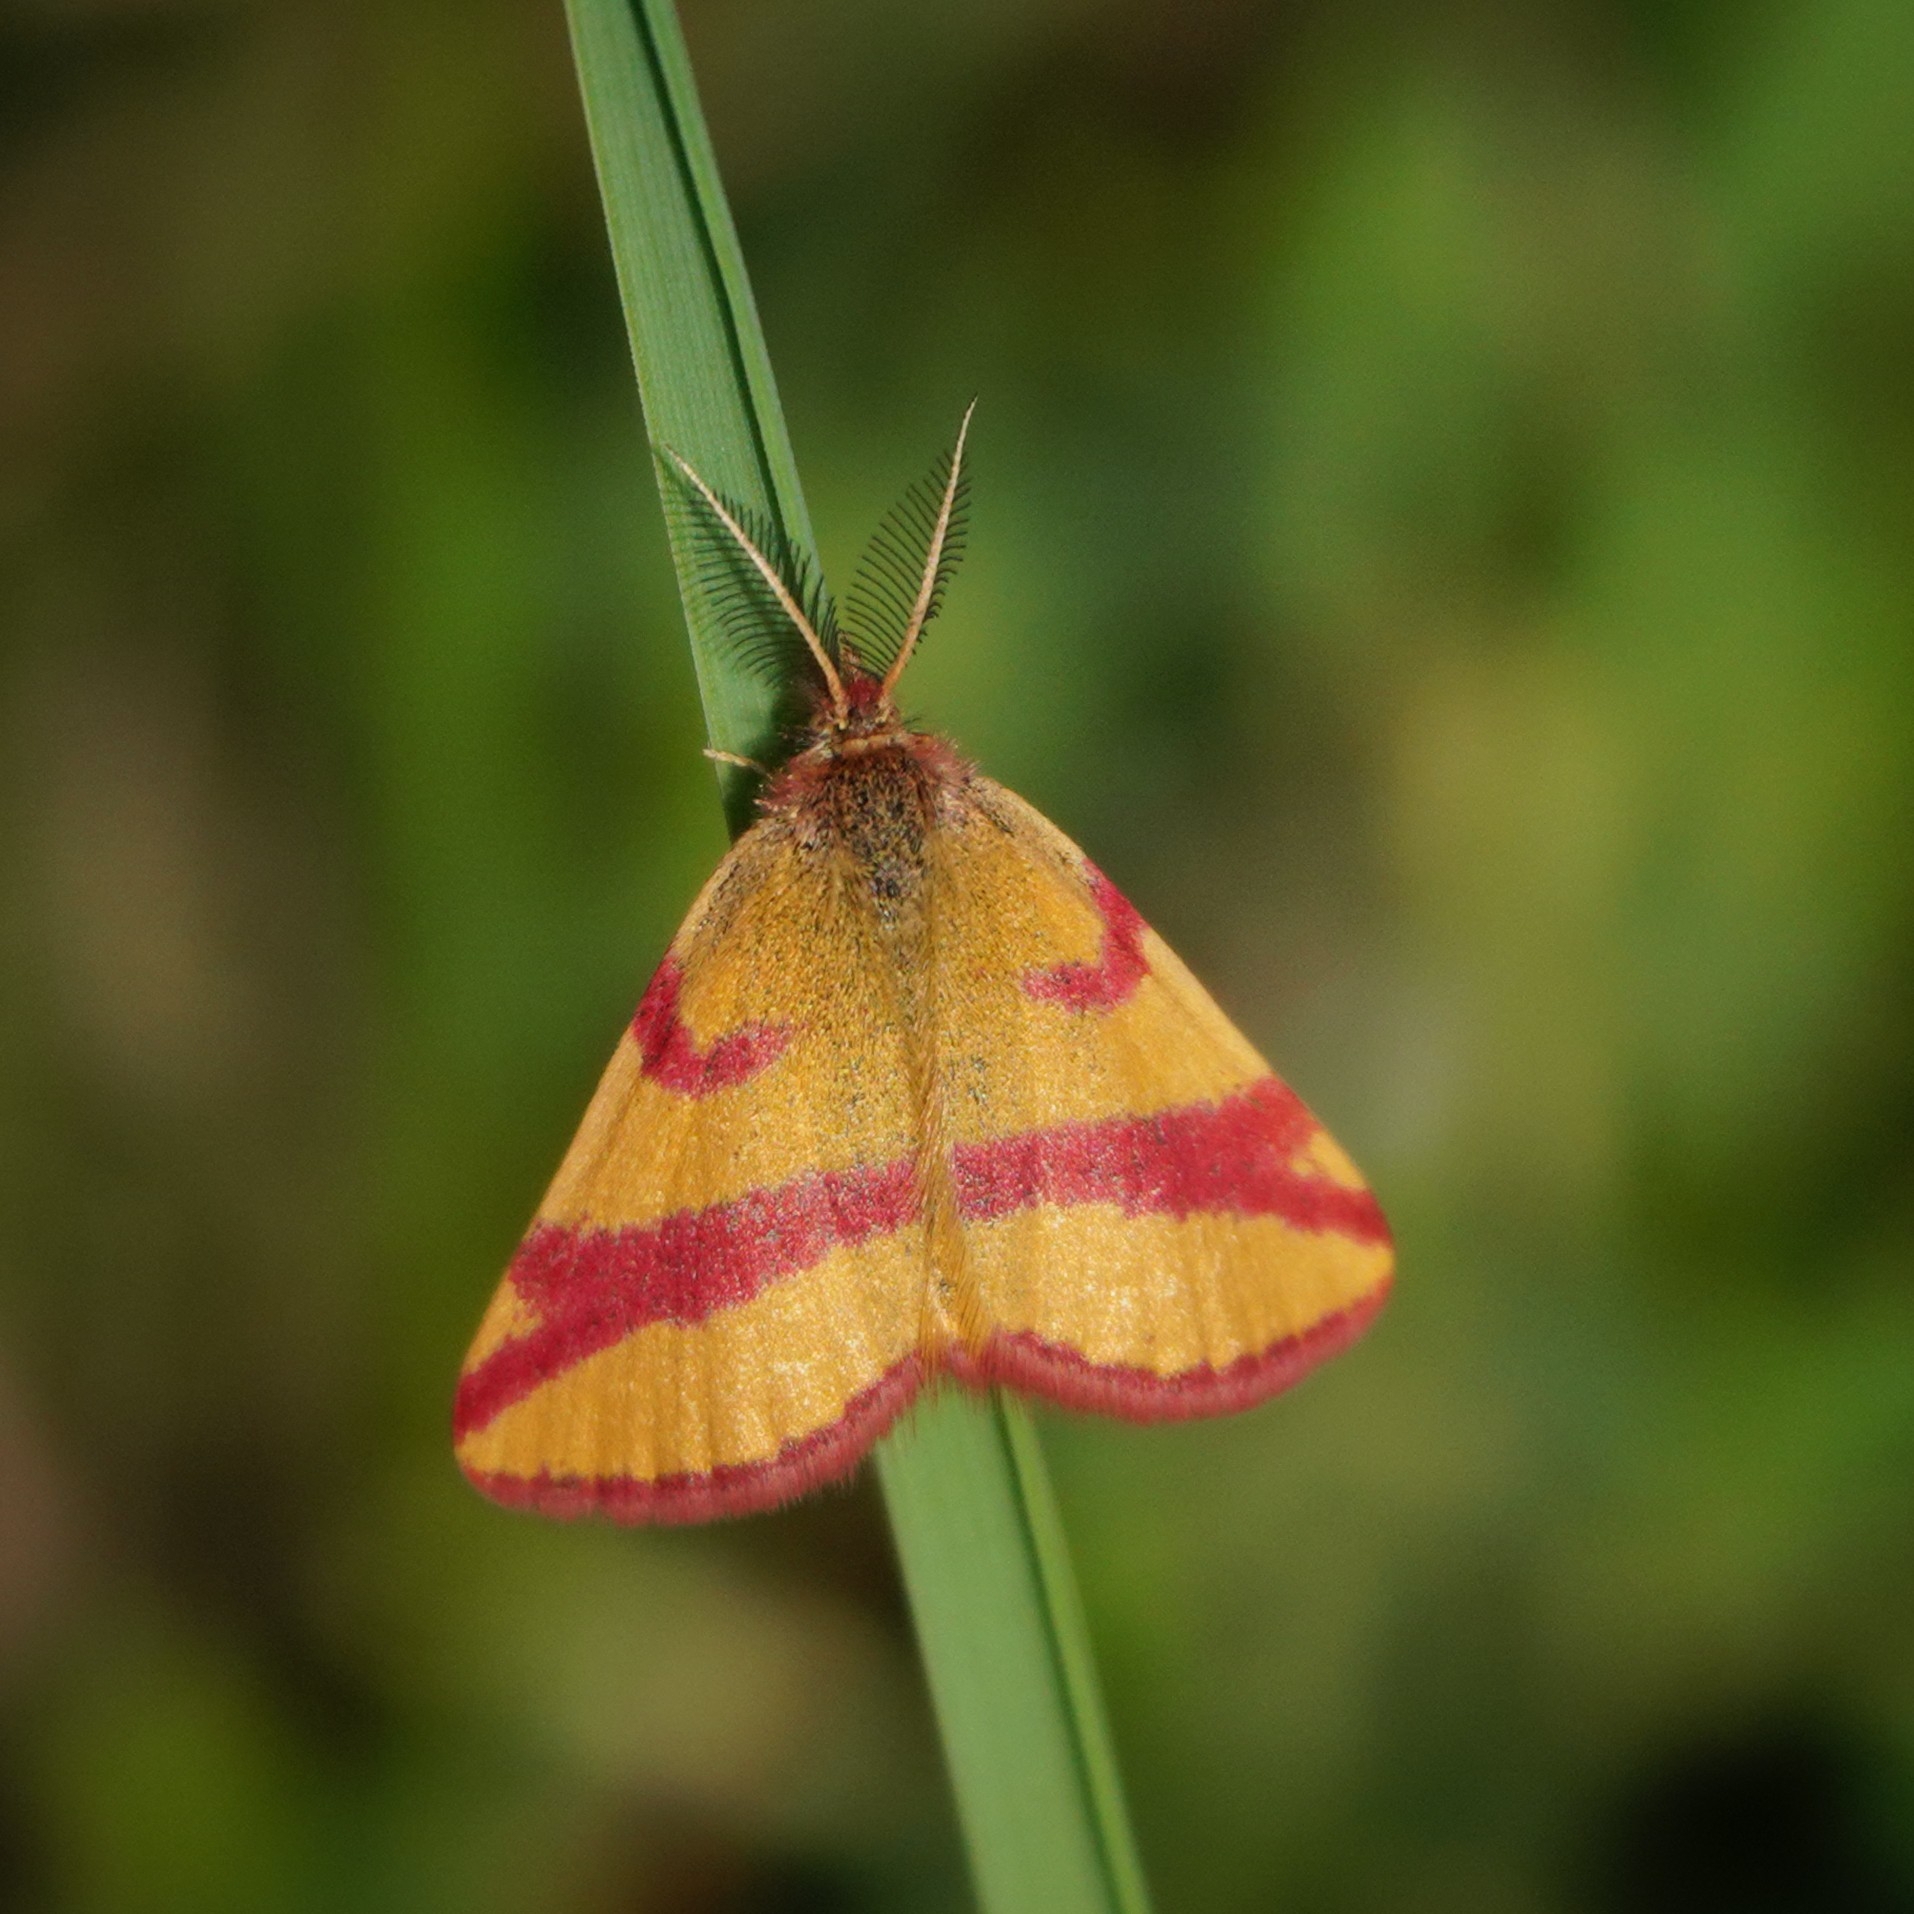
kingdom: Animalia
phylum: Arthropoda
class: Insecta
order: Lepidoptera
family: Geometridae
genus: Lythria
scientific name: Lythria cruentaria
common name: Purple-barred yellow
